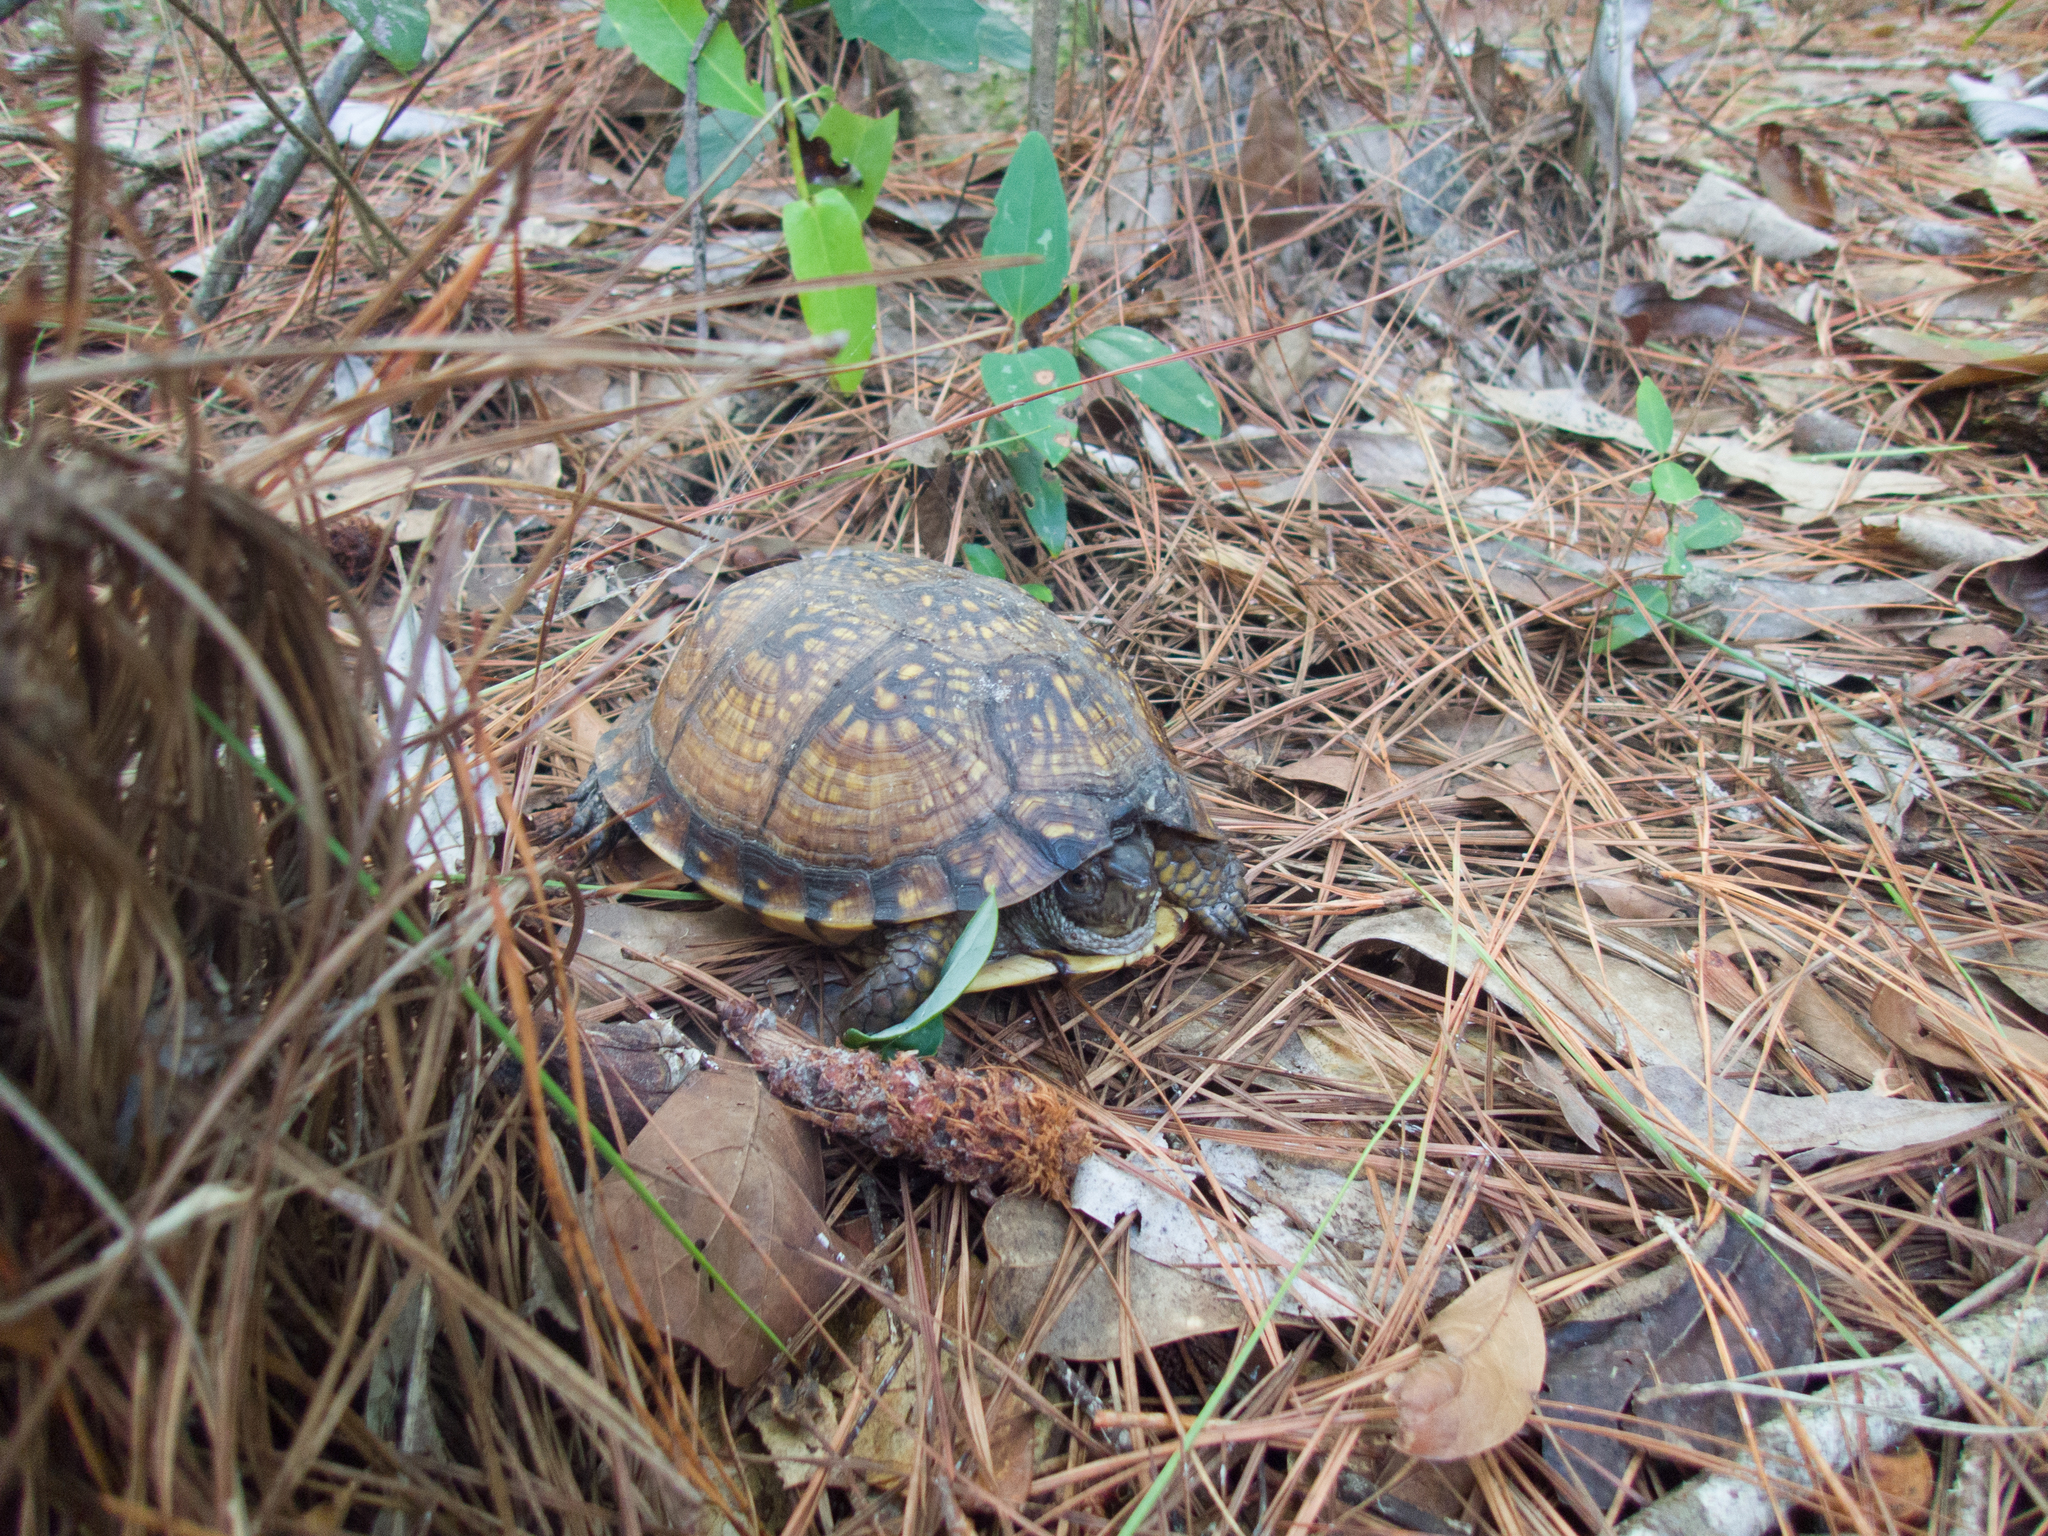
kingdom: Animalia
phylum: Chordata
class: Testudines
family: Emydidae
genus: Terrapene
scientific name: Terrapene carolina
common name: Common box turtle
